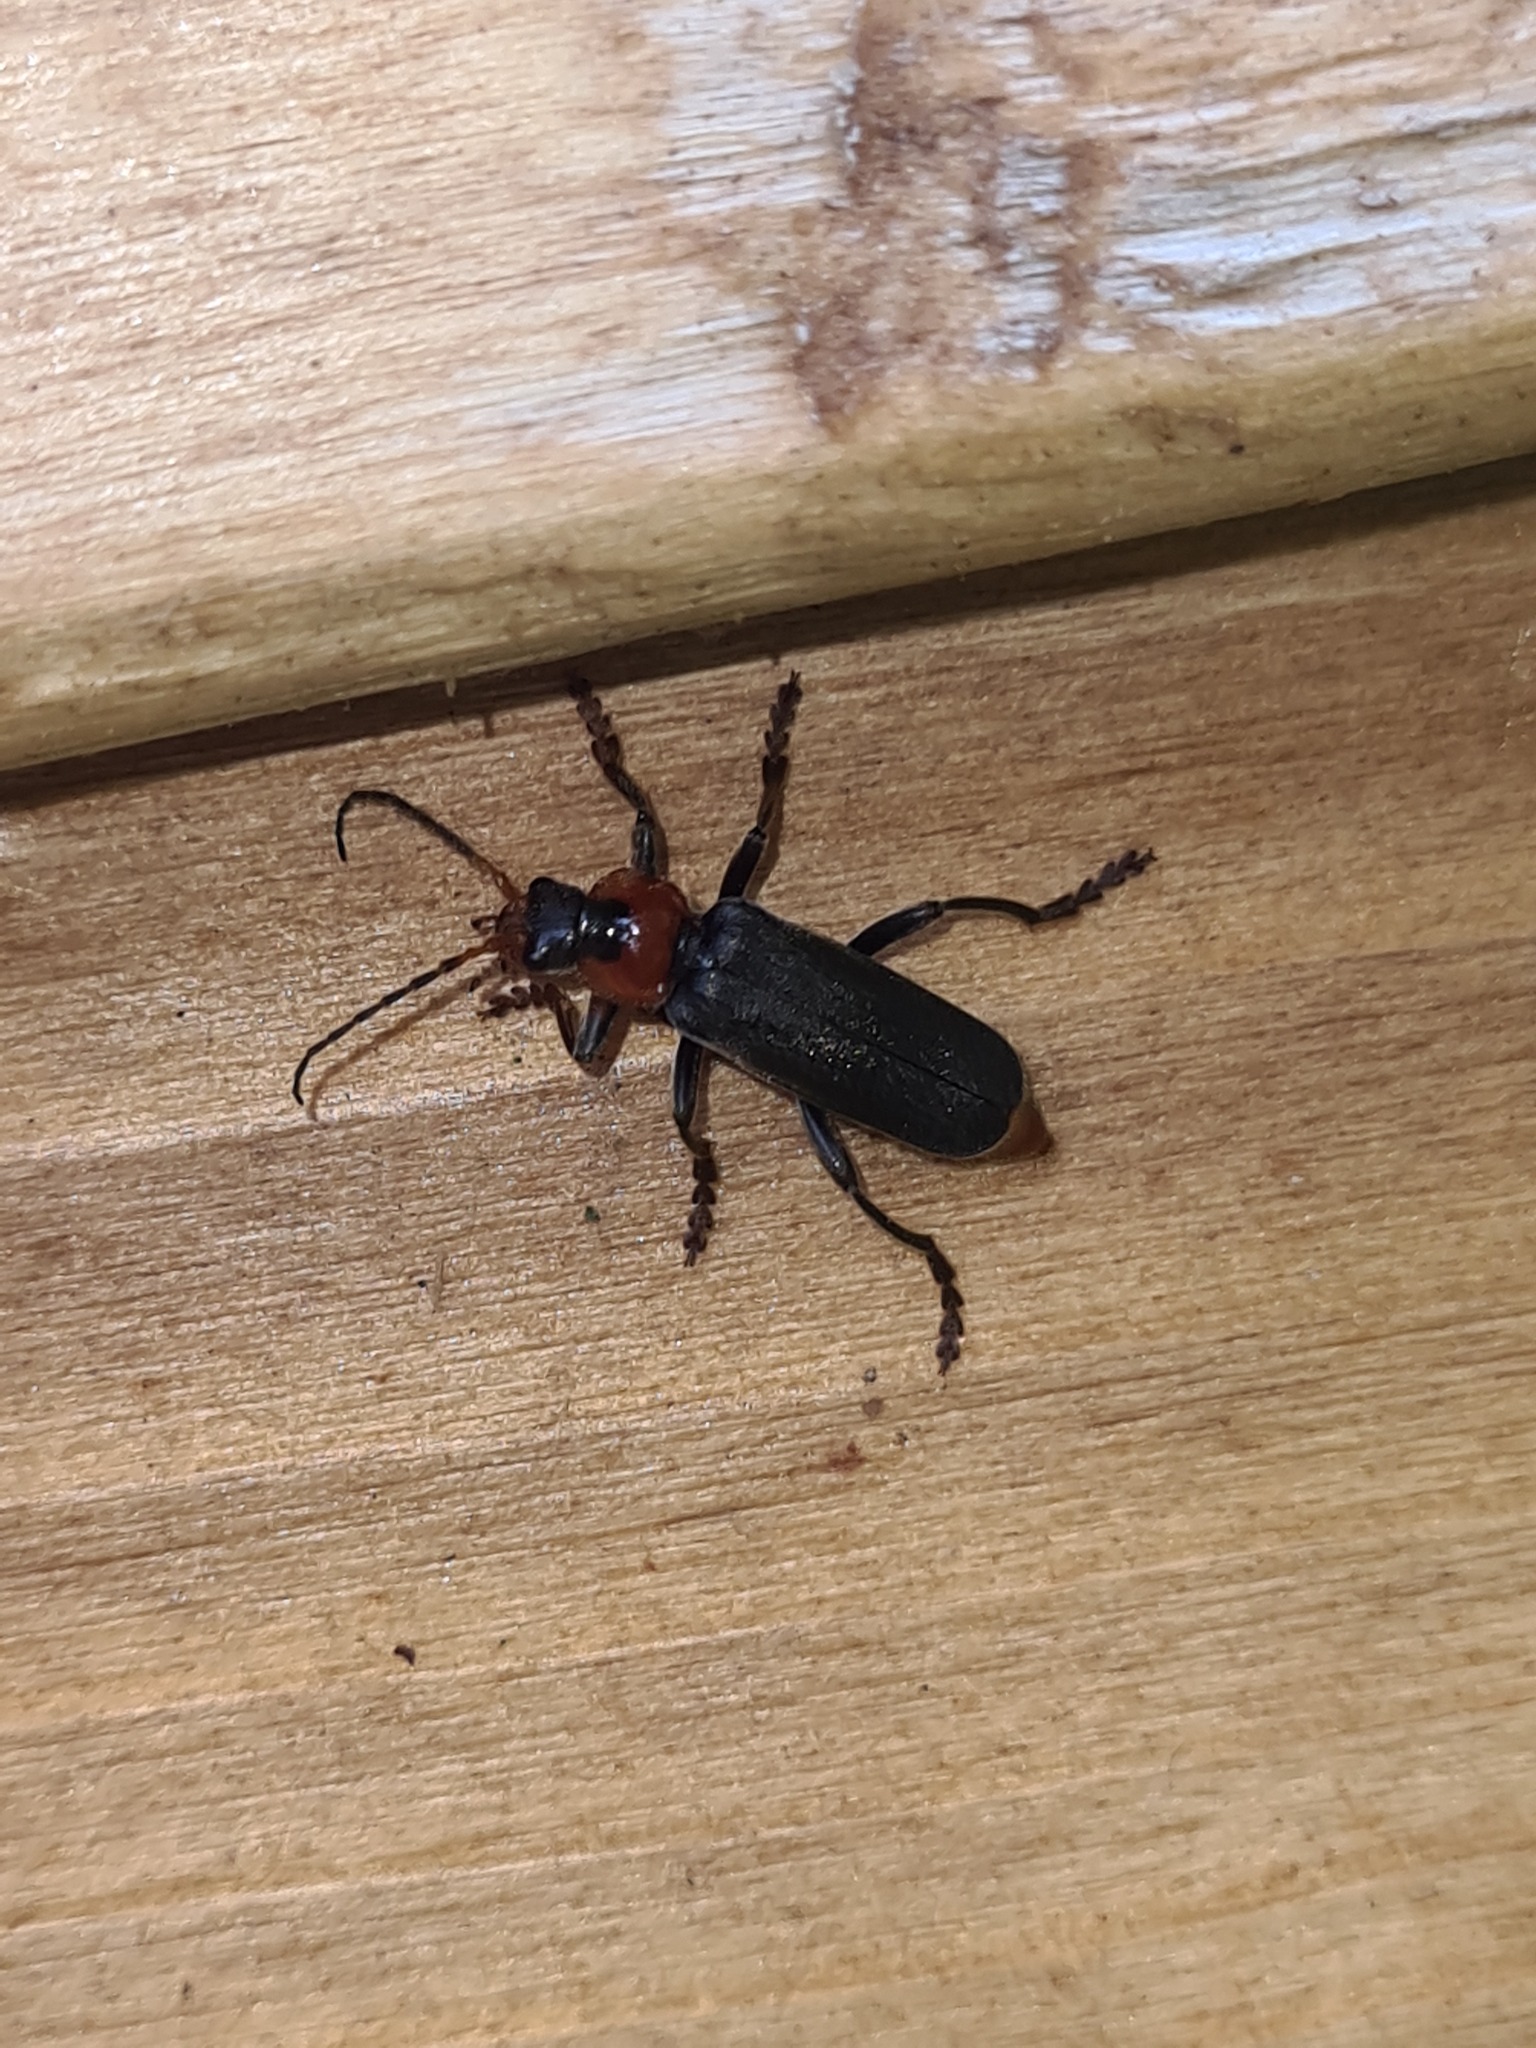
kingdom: Animalia
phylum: Arthropoda
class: Insecta
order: Coleoptera
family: Cantharidae
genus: Cantharis
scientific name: Cantharis fusca
